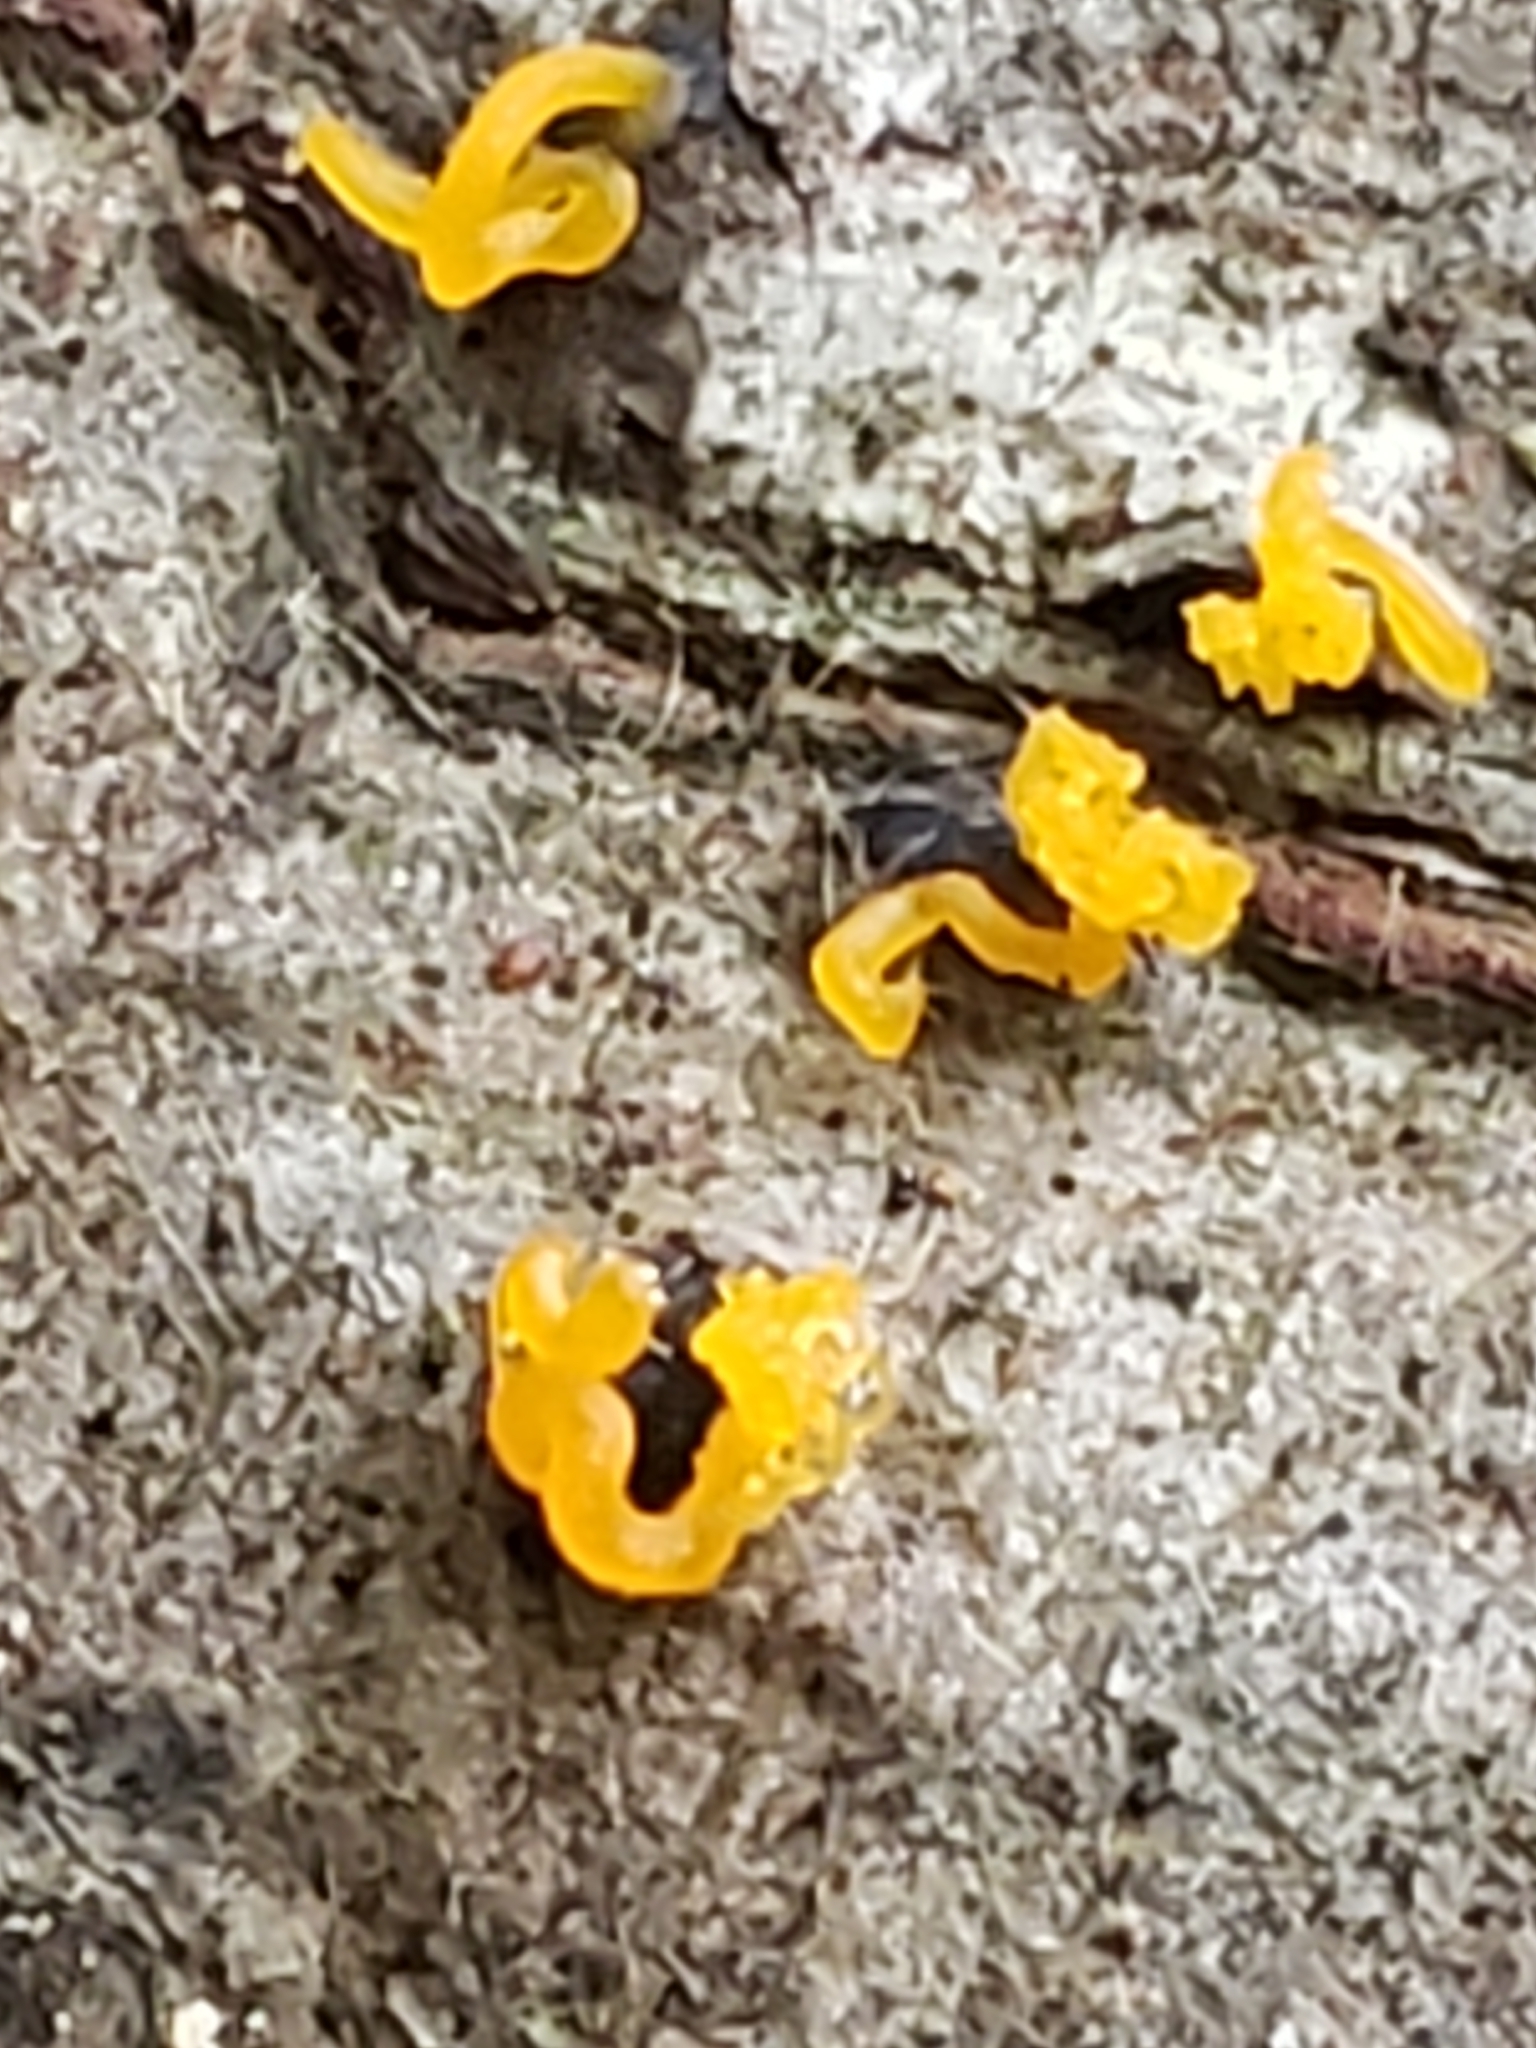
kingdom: Fungi
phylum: Basidiomycota
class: Dacrymycetes
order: Dacrymycetales
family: Dacrymycetaceae
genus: Dacrymyces
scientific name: Dacrymyces spathularius
